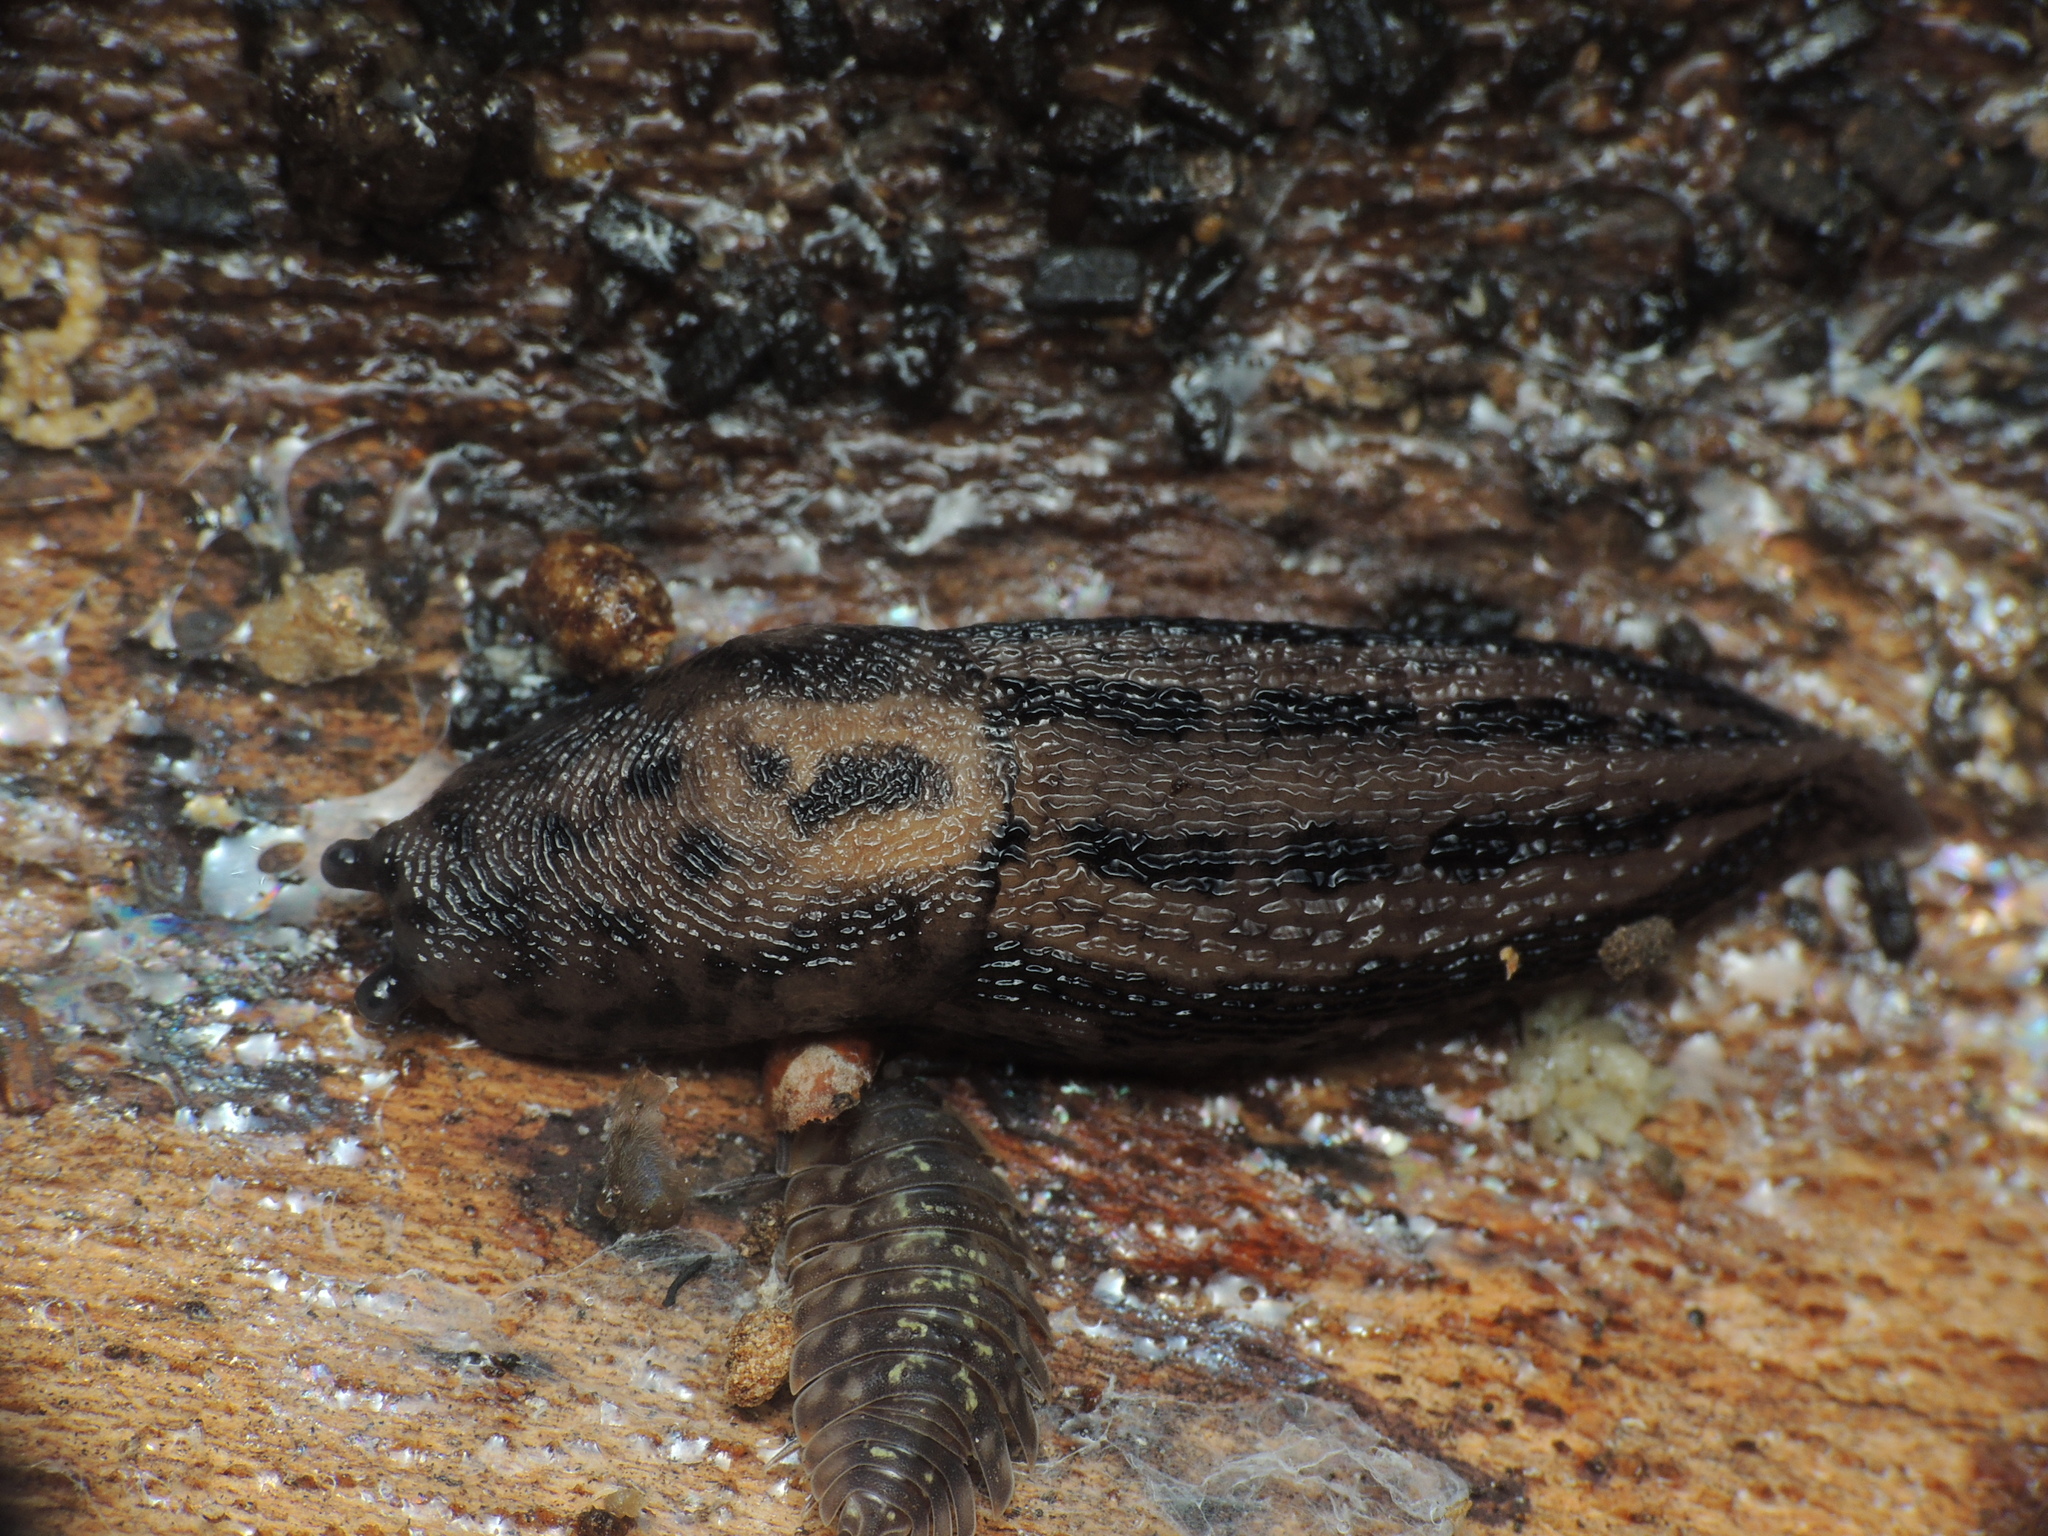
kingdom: Animalia
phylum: Mollusca
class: Gastropoda
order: Stylommatophora
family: Limacidae
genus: Limax
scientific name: Limax maximus
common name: Great grey slug
